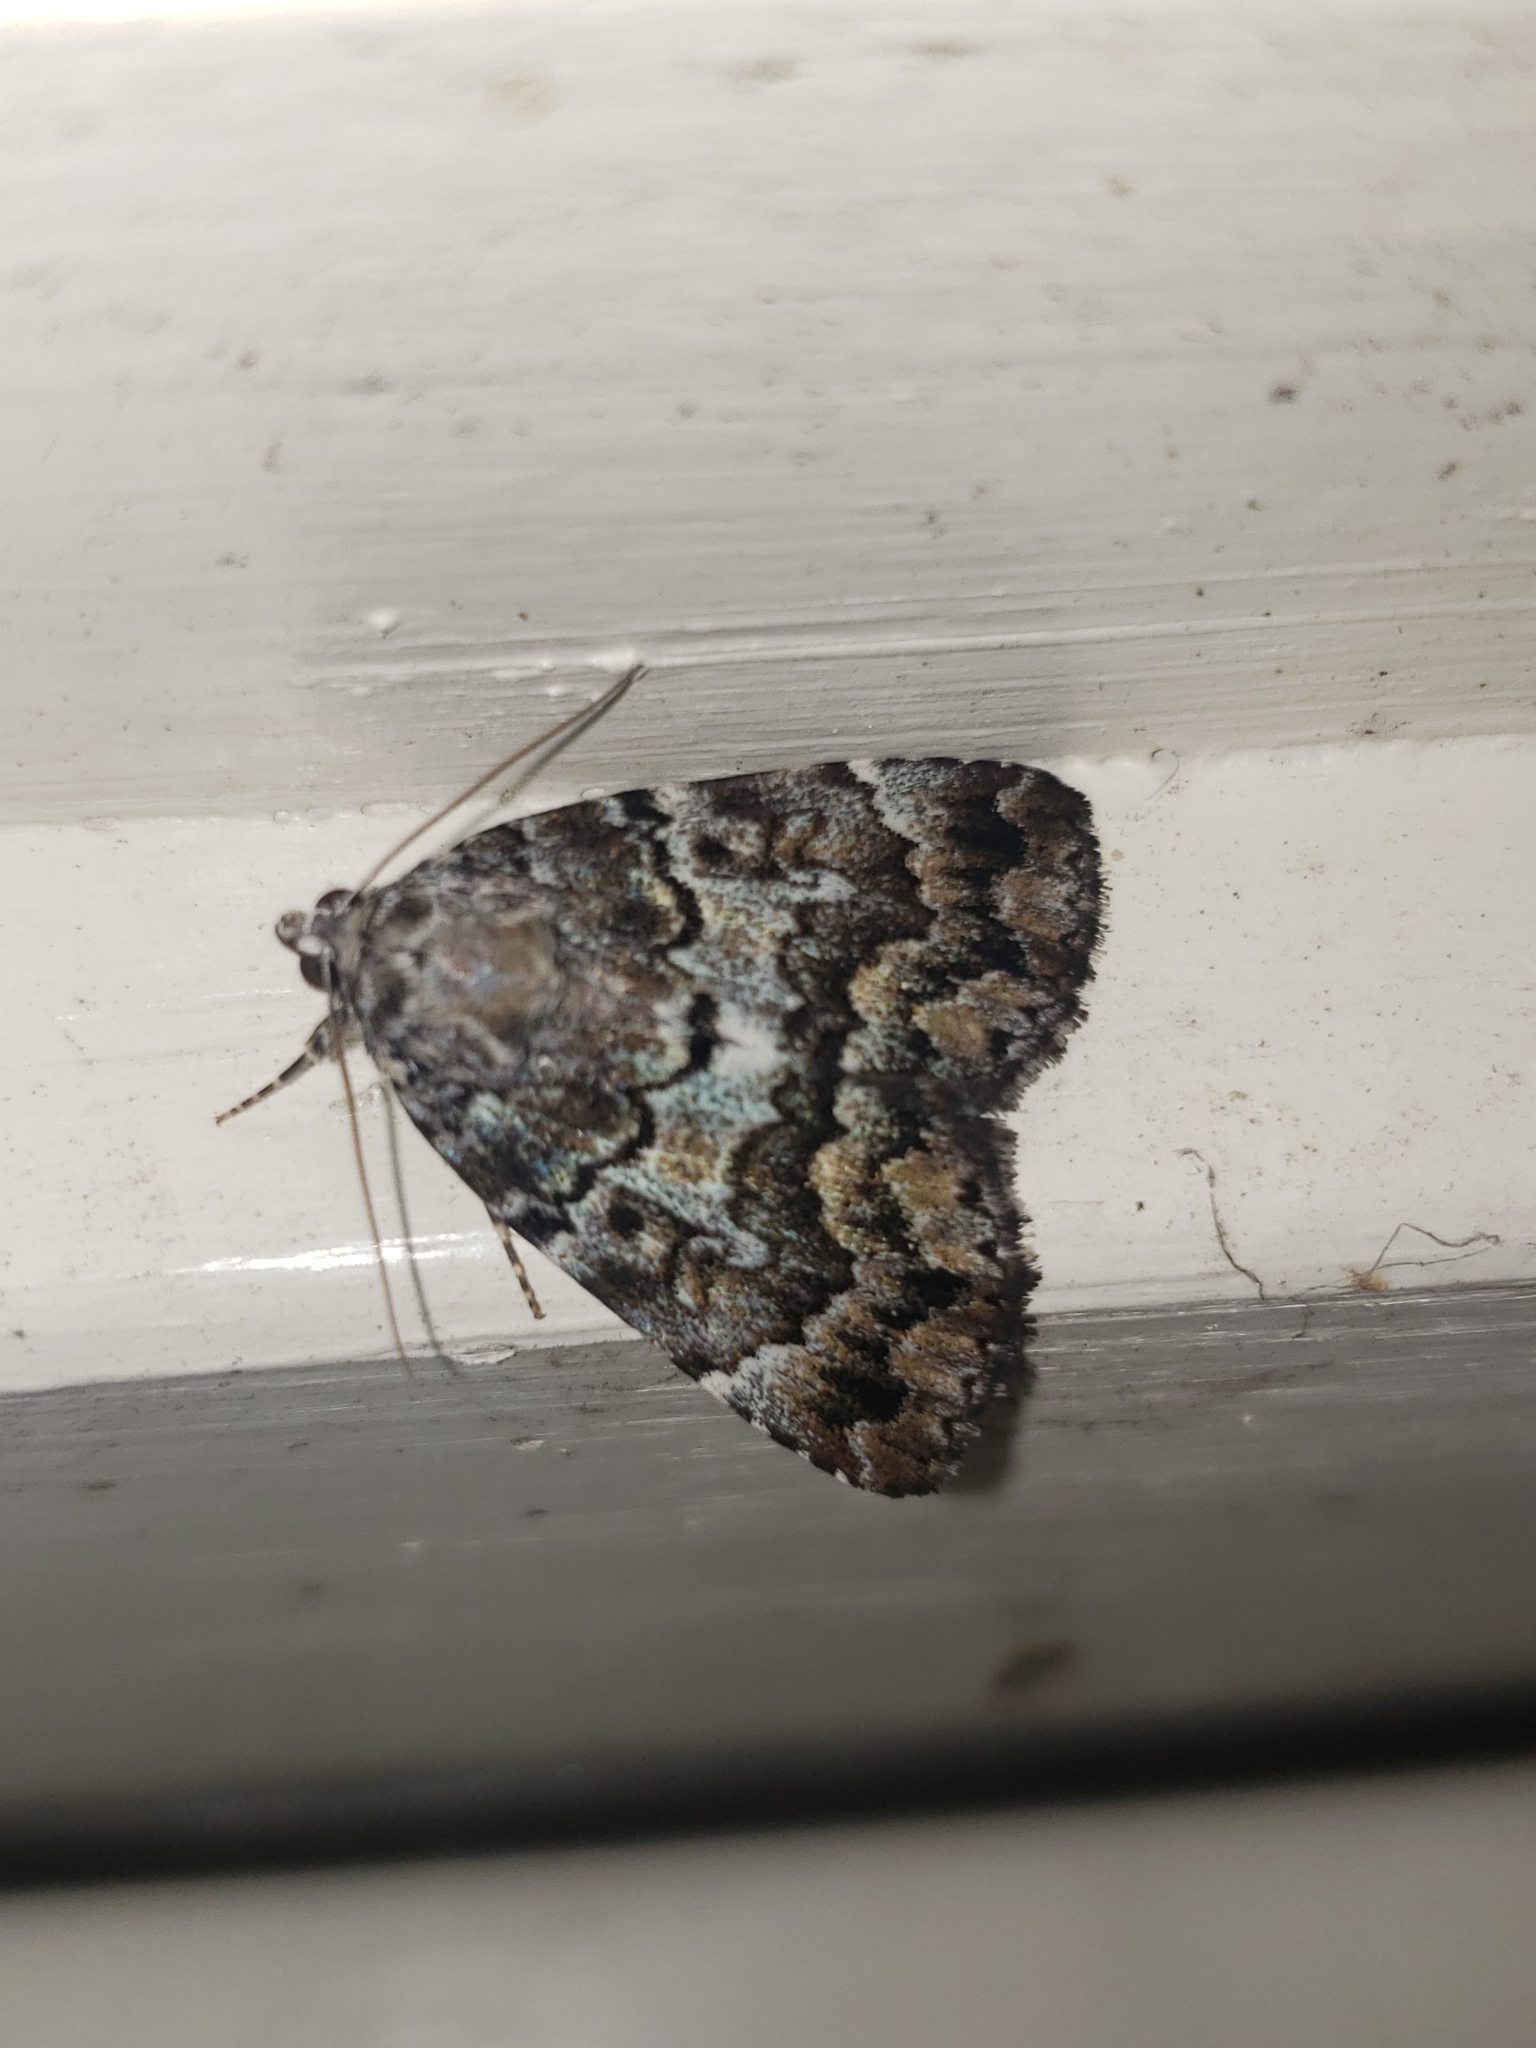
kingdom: Animalia
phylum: Arthropoda
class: Insecta
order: Lepidoptera
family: Erebidae
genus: Allotria
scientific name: Allotria elonympha
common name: False underwing
